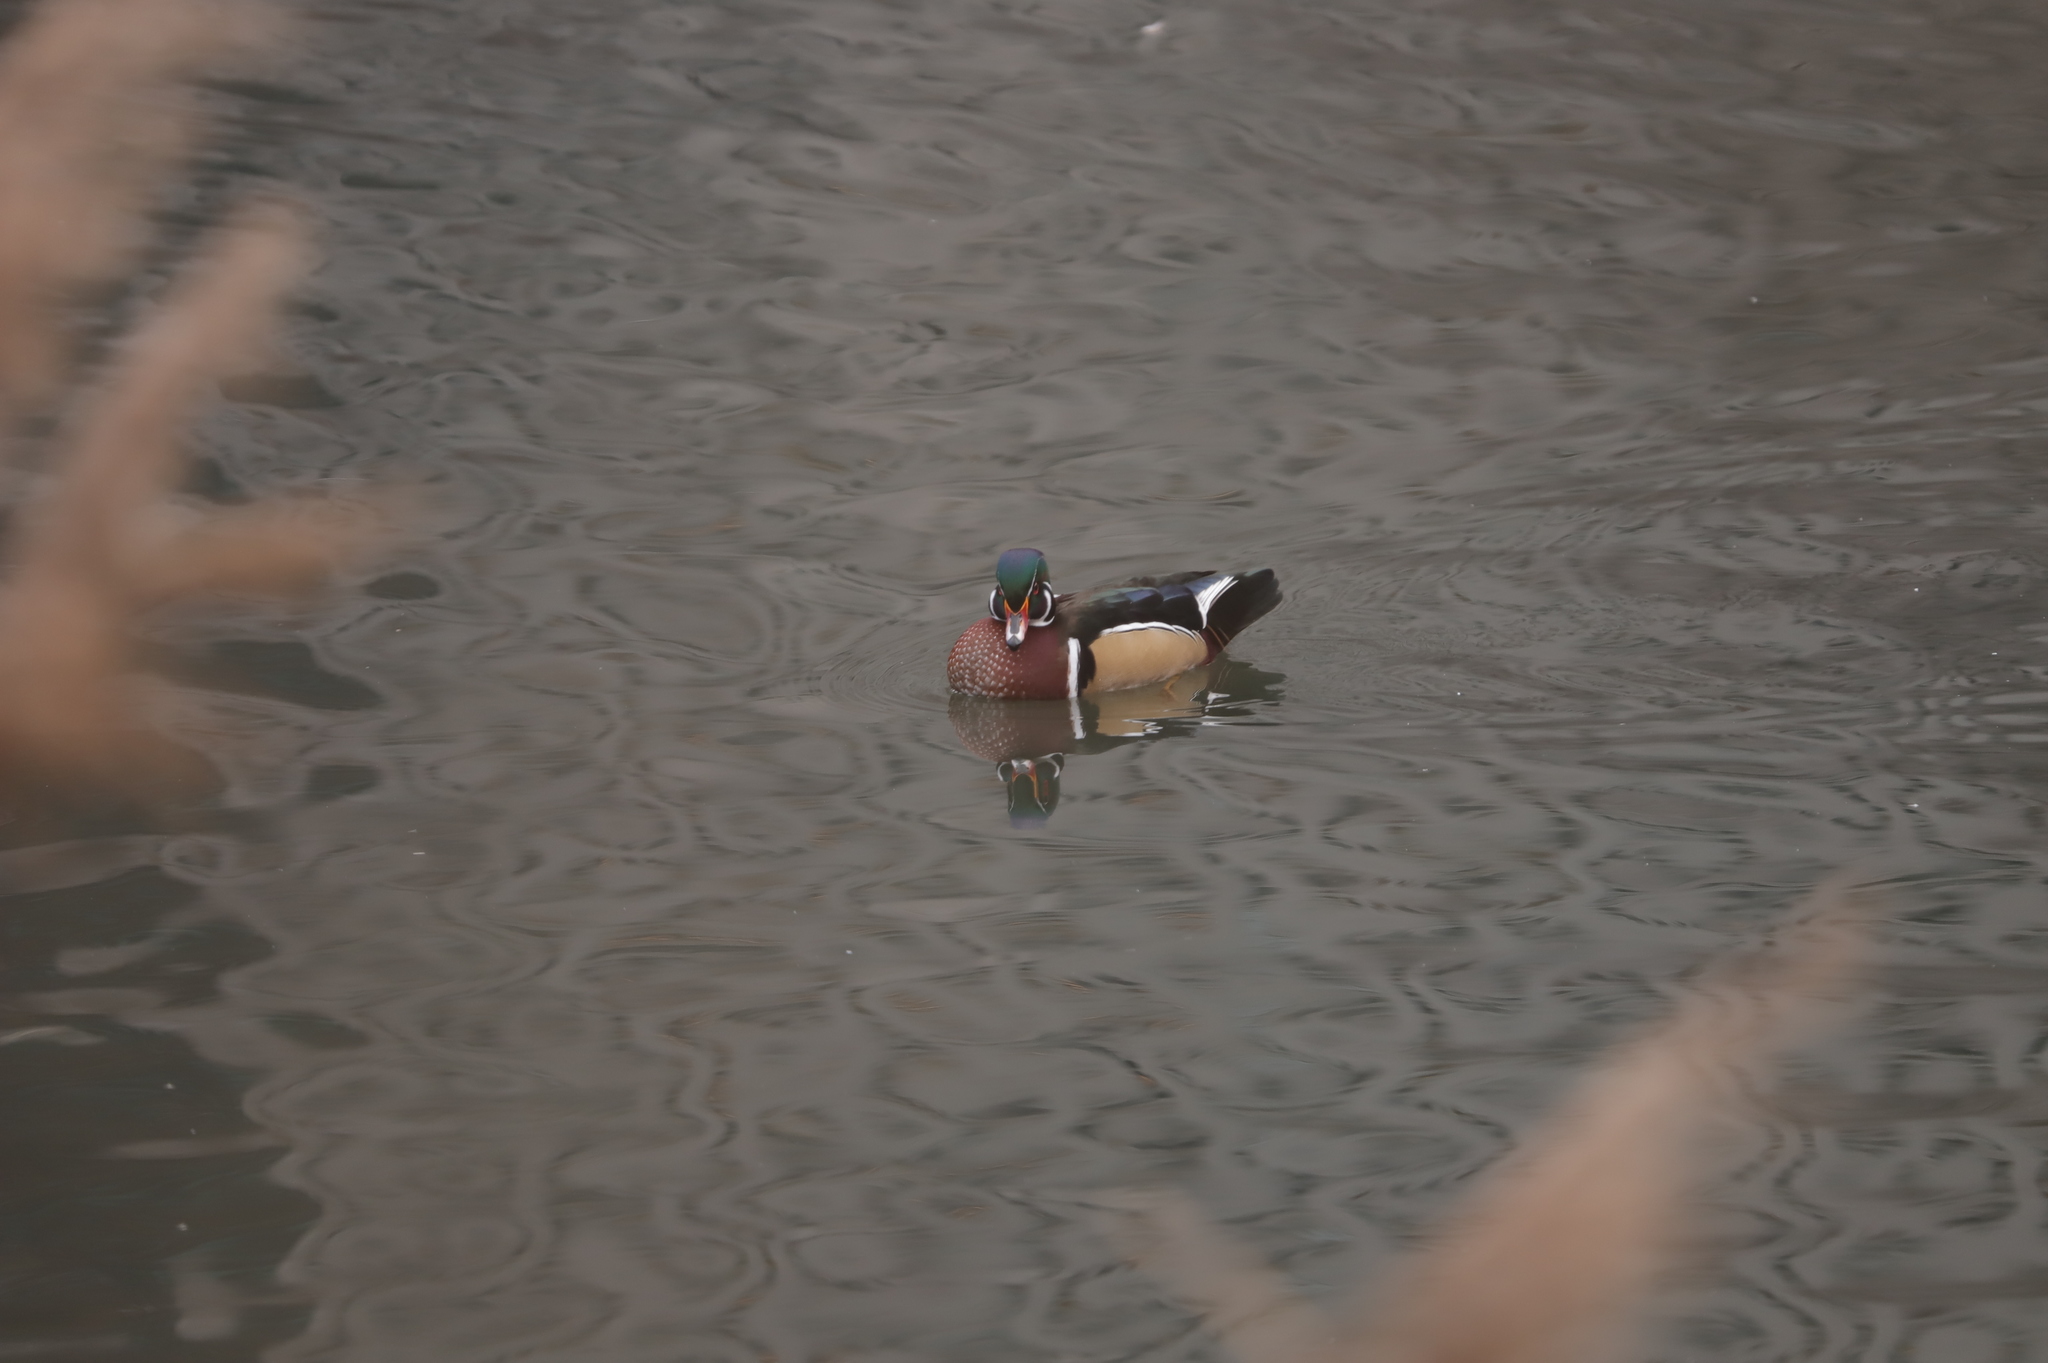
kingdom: Animalia
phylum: Chordata
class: Aves
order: Anseriformes
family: Anatidae
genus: Aix
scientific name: Aix sponsa
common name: Wood duck
